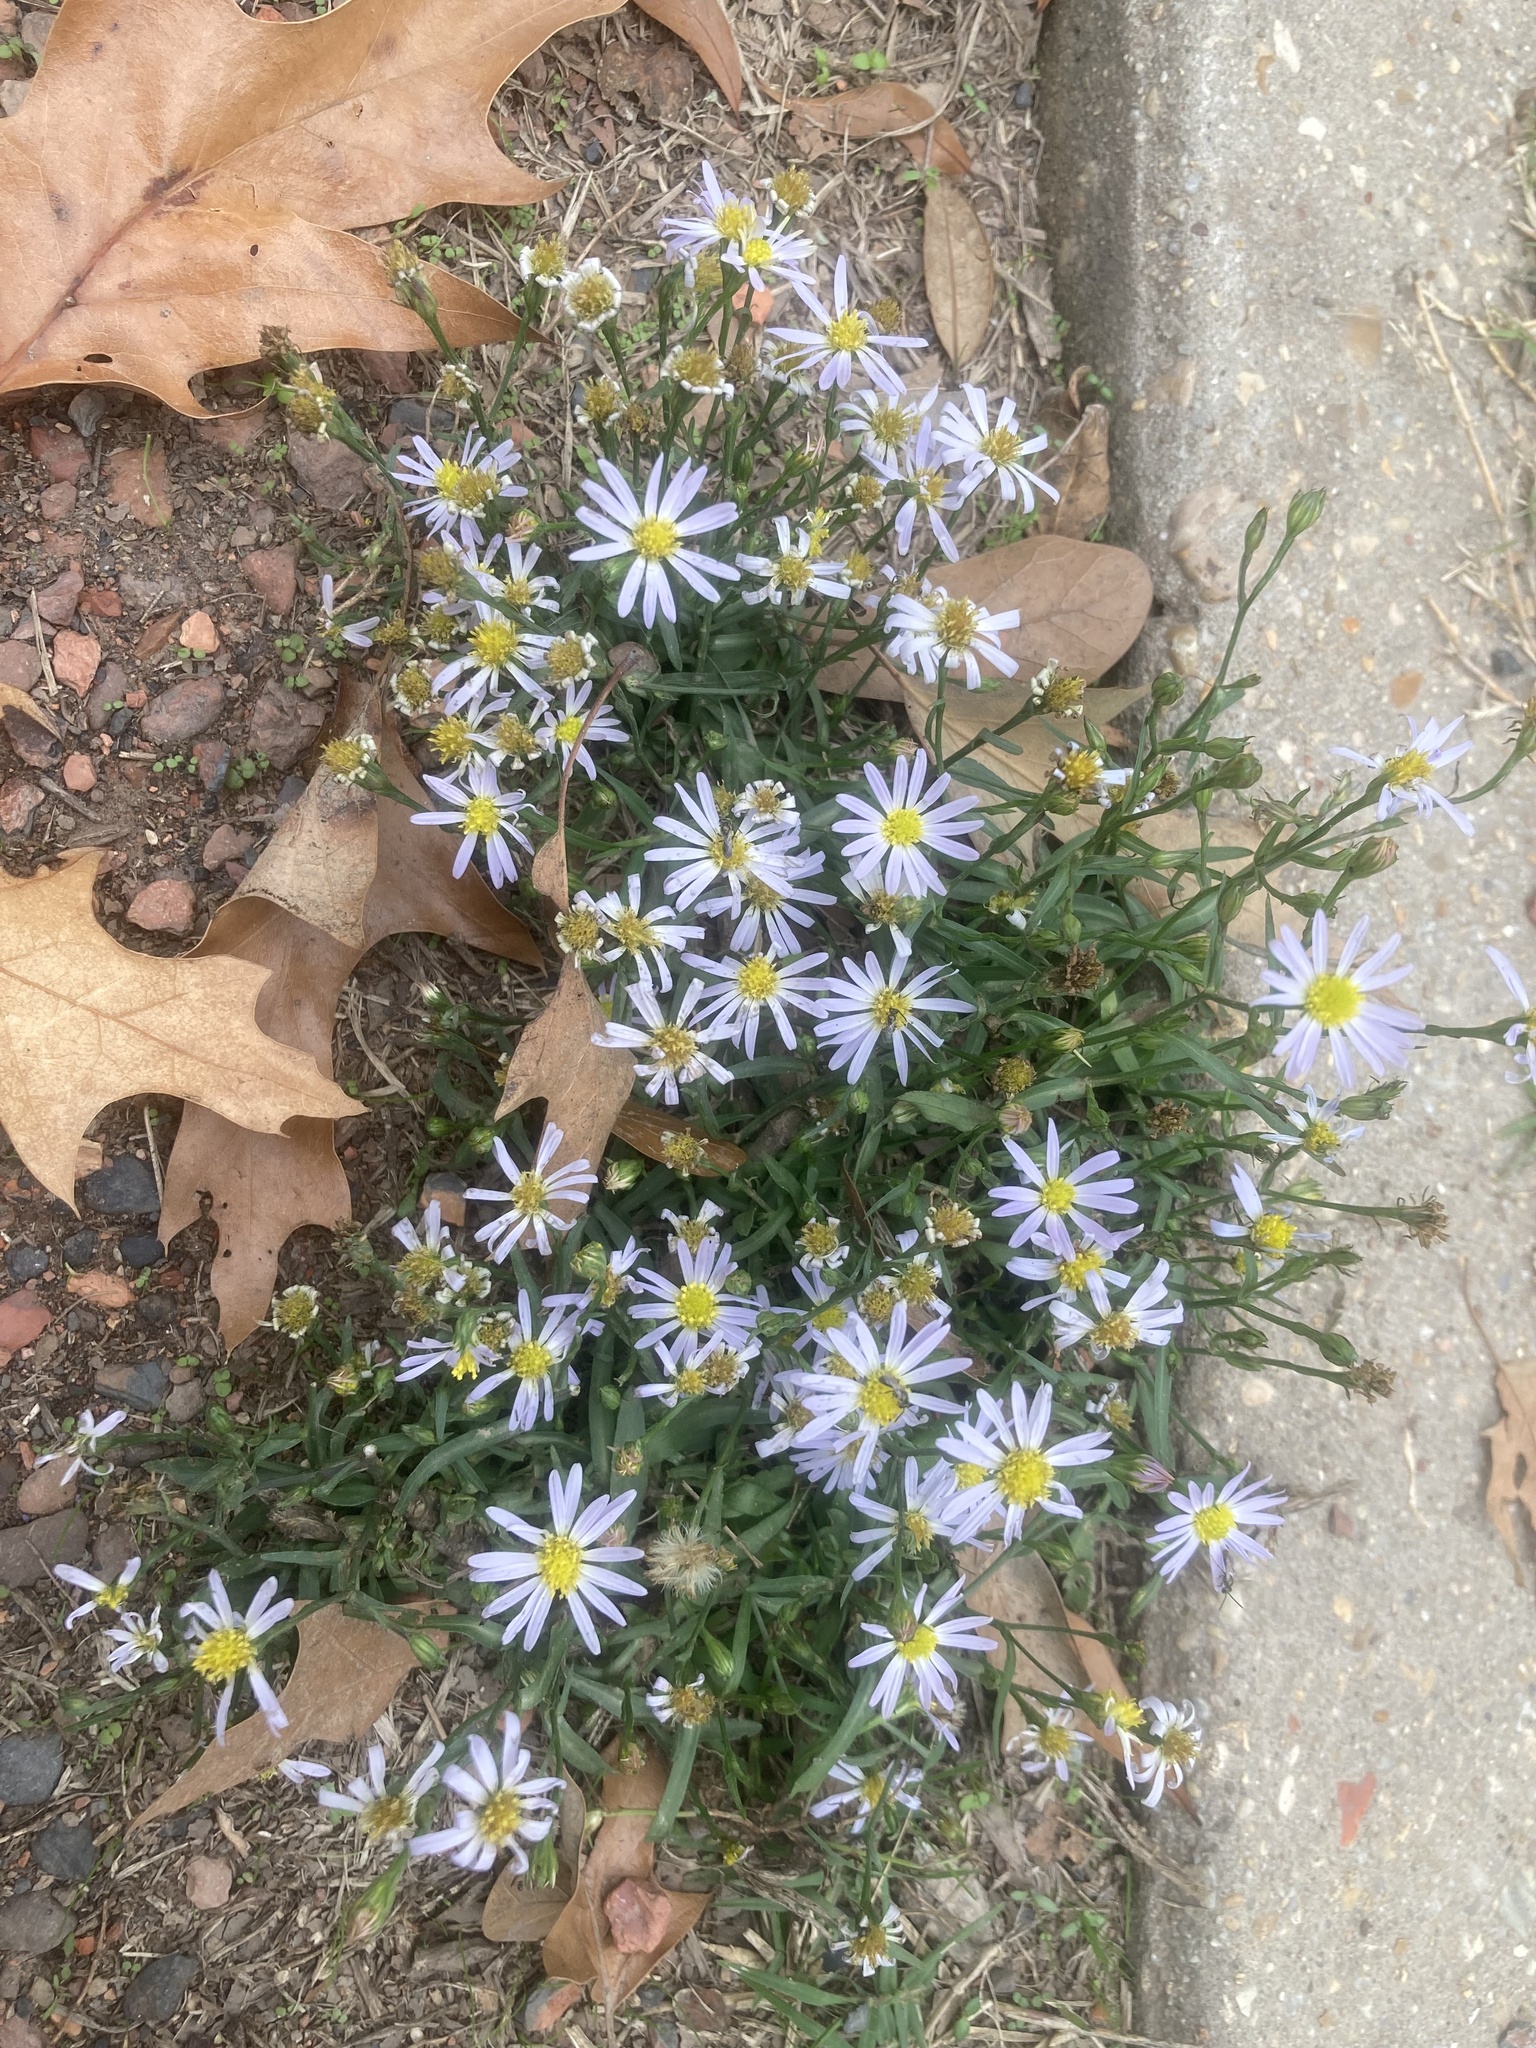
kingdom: Plantae
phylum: Tracheophyta
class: Magnoliopsida
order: Asterales
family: Asteraceae
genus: Symphyotrichum
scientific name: Symphyotrichum divaricatum
